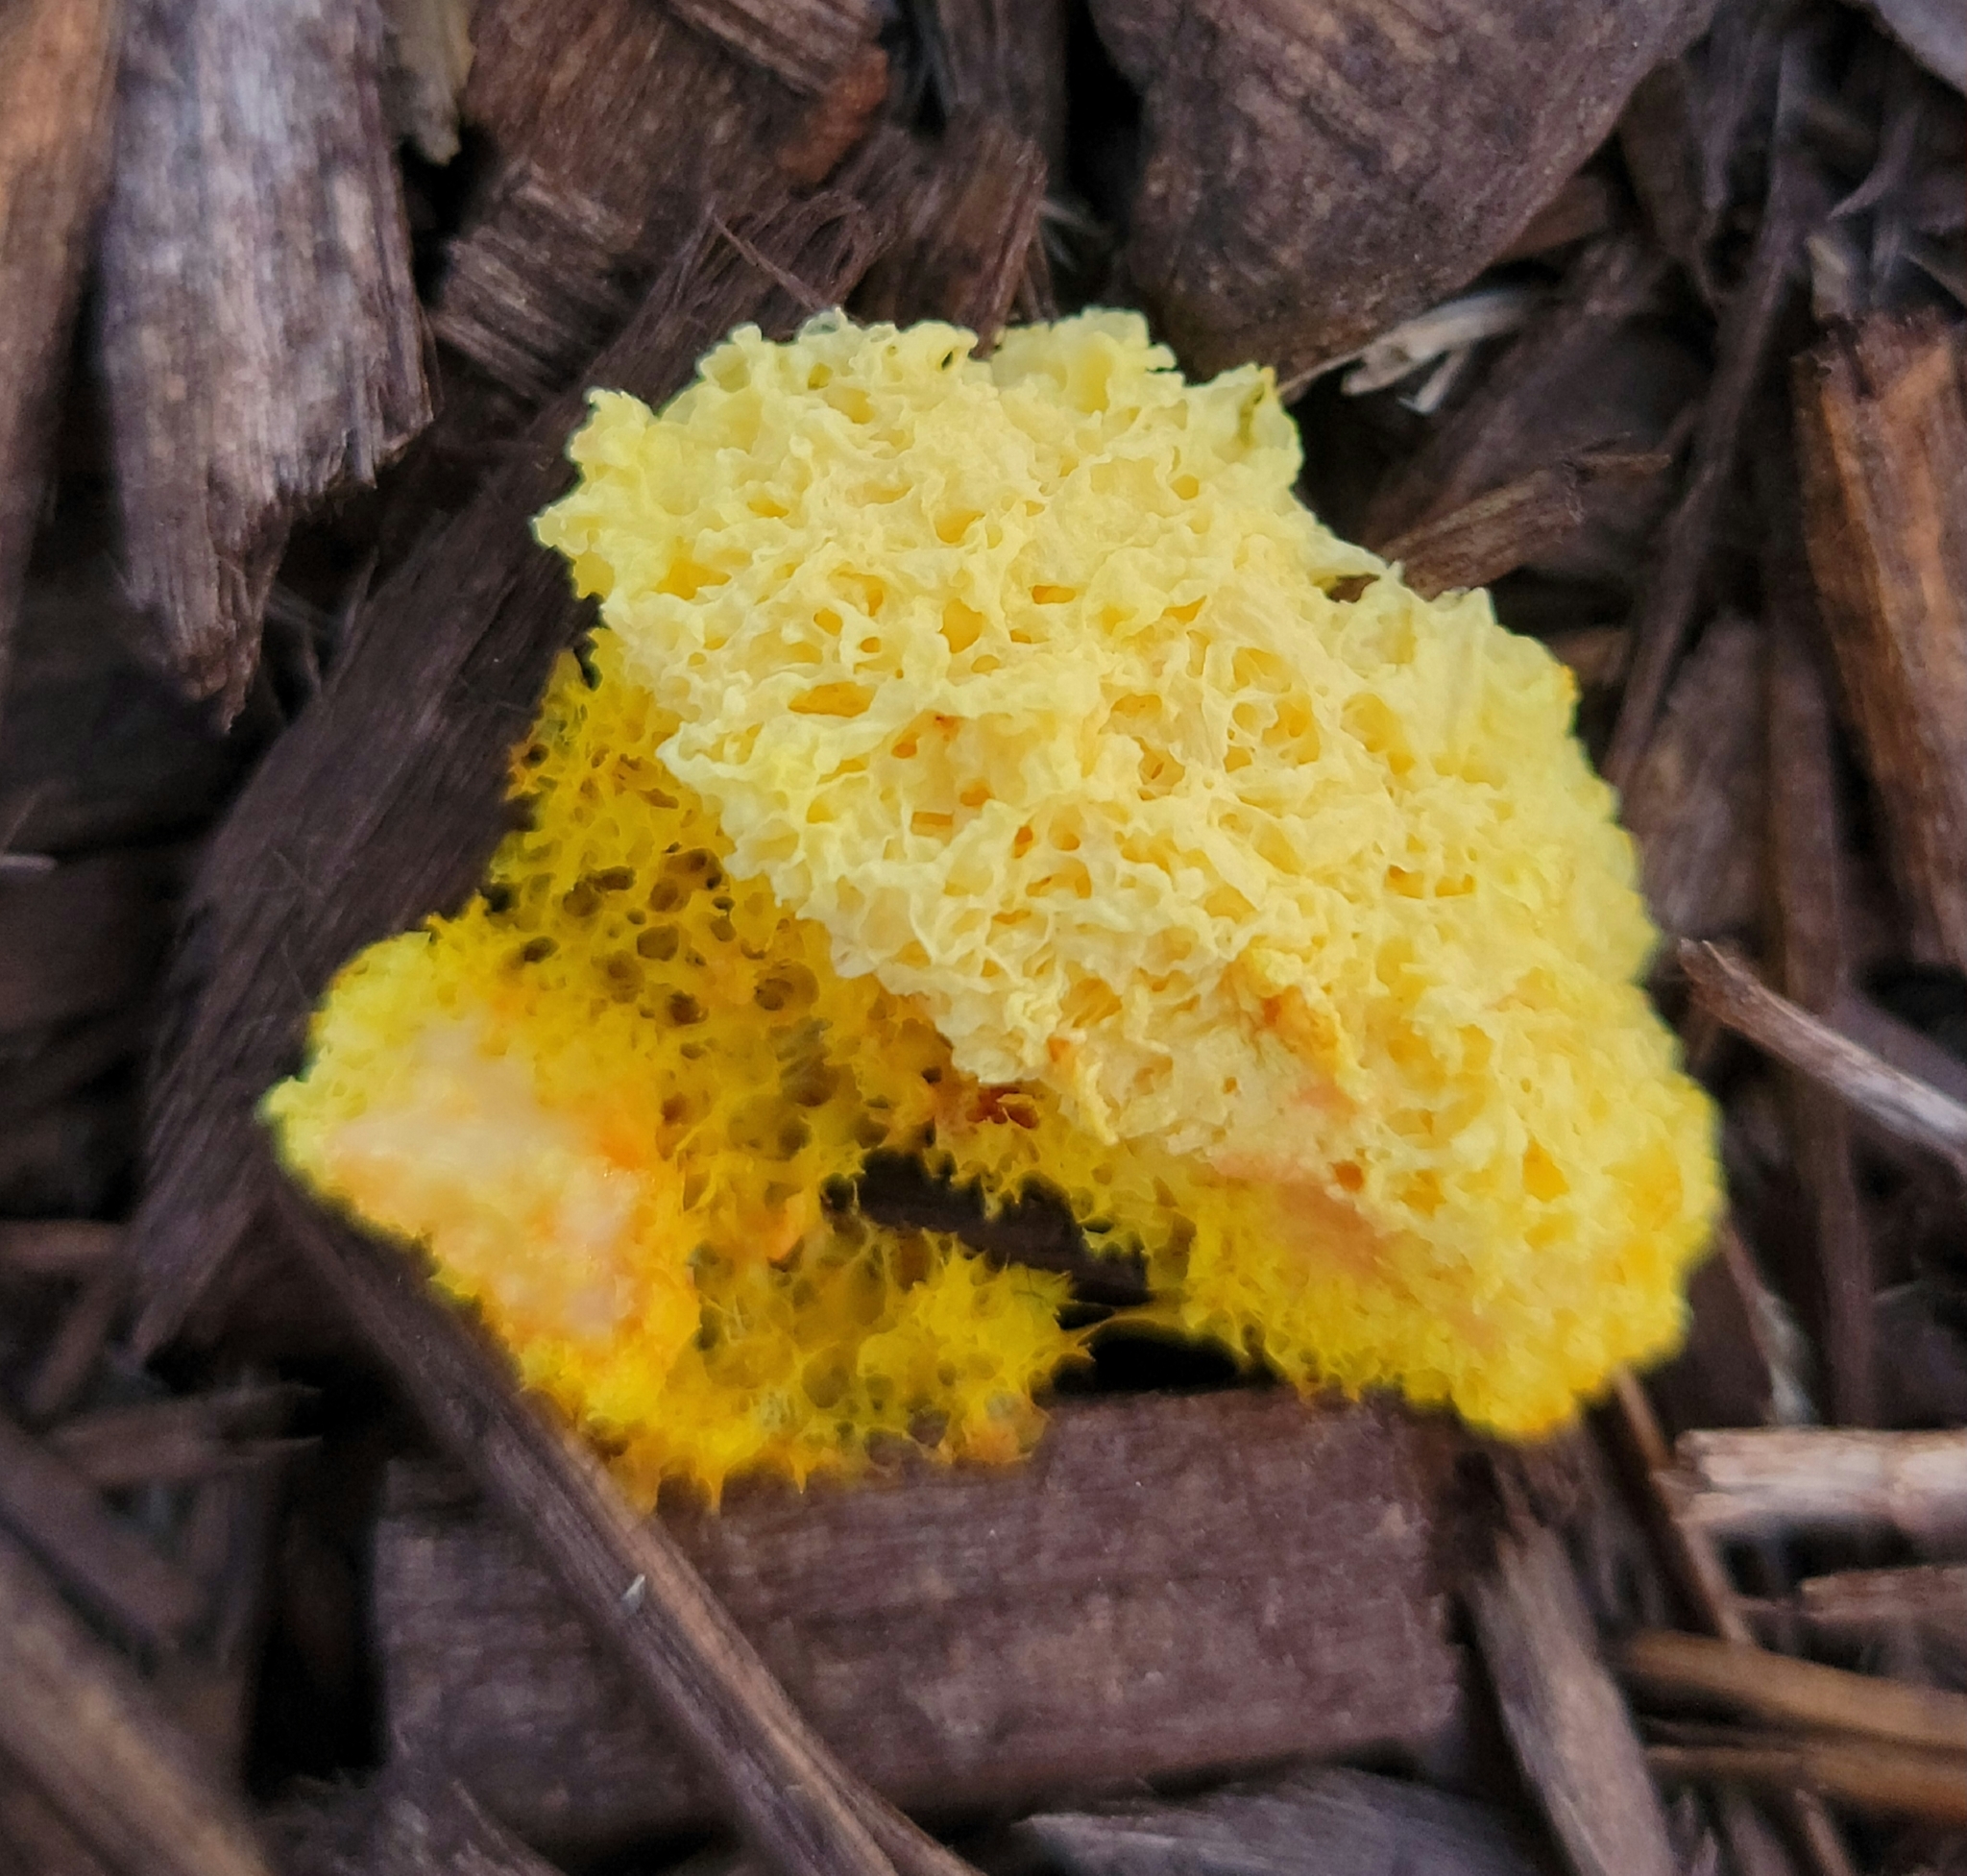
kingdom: Protozoa
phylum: Mycetozoa
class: Myxomycetes
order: Physarales
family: Physaraceae
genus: Fuligo
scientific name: Fuligo septica
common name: Dog vomit slime mold
